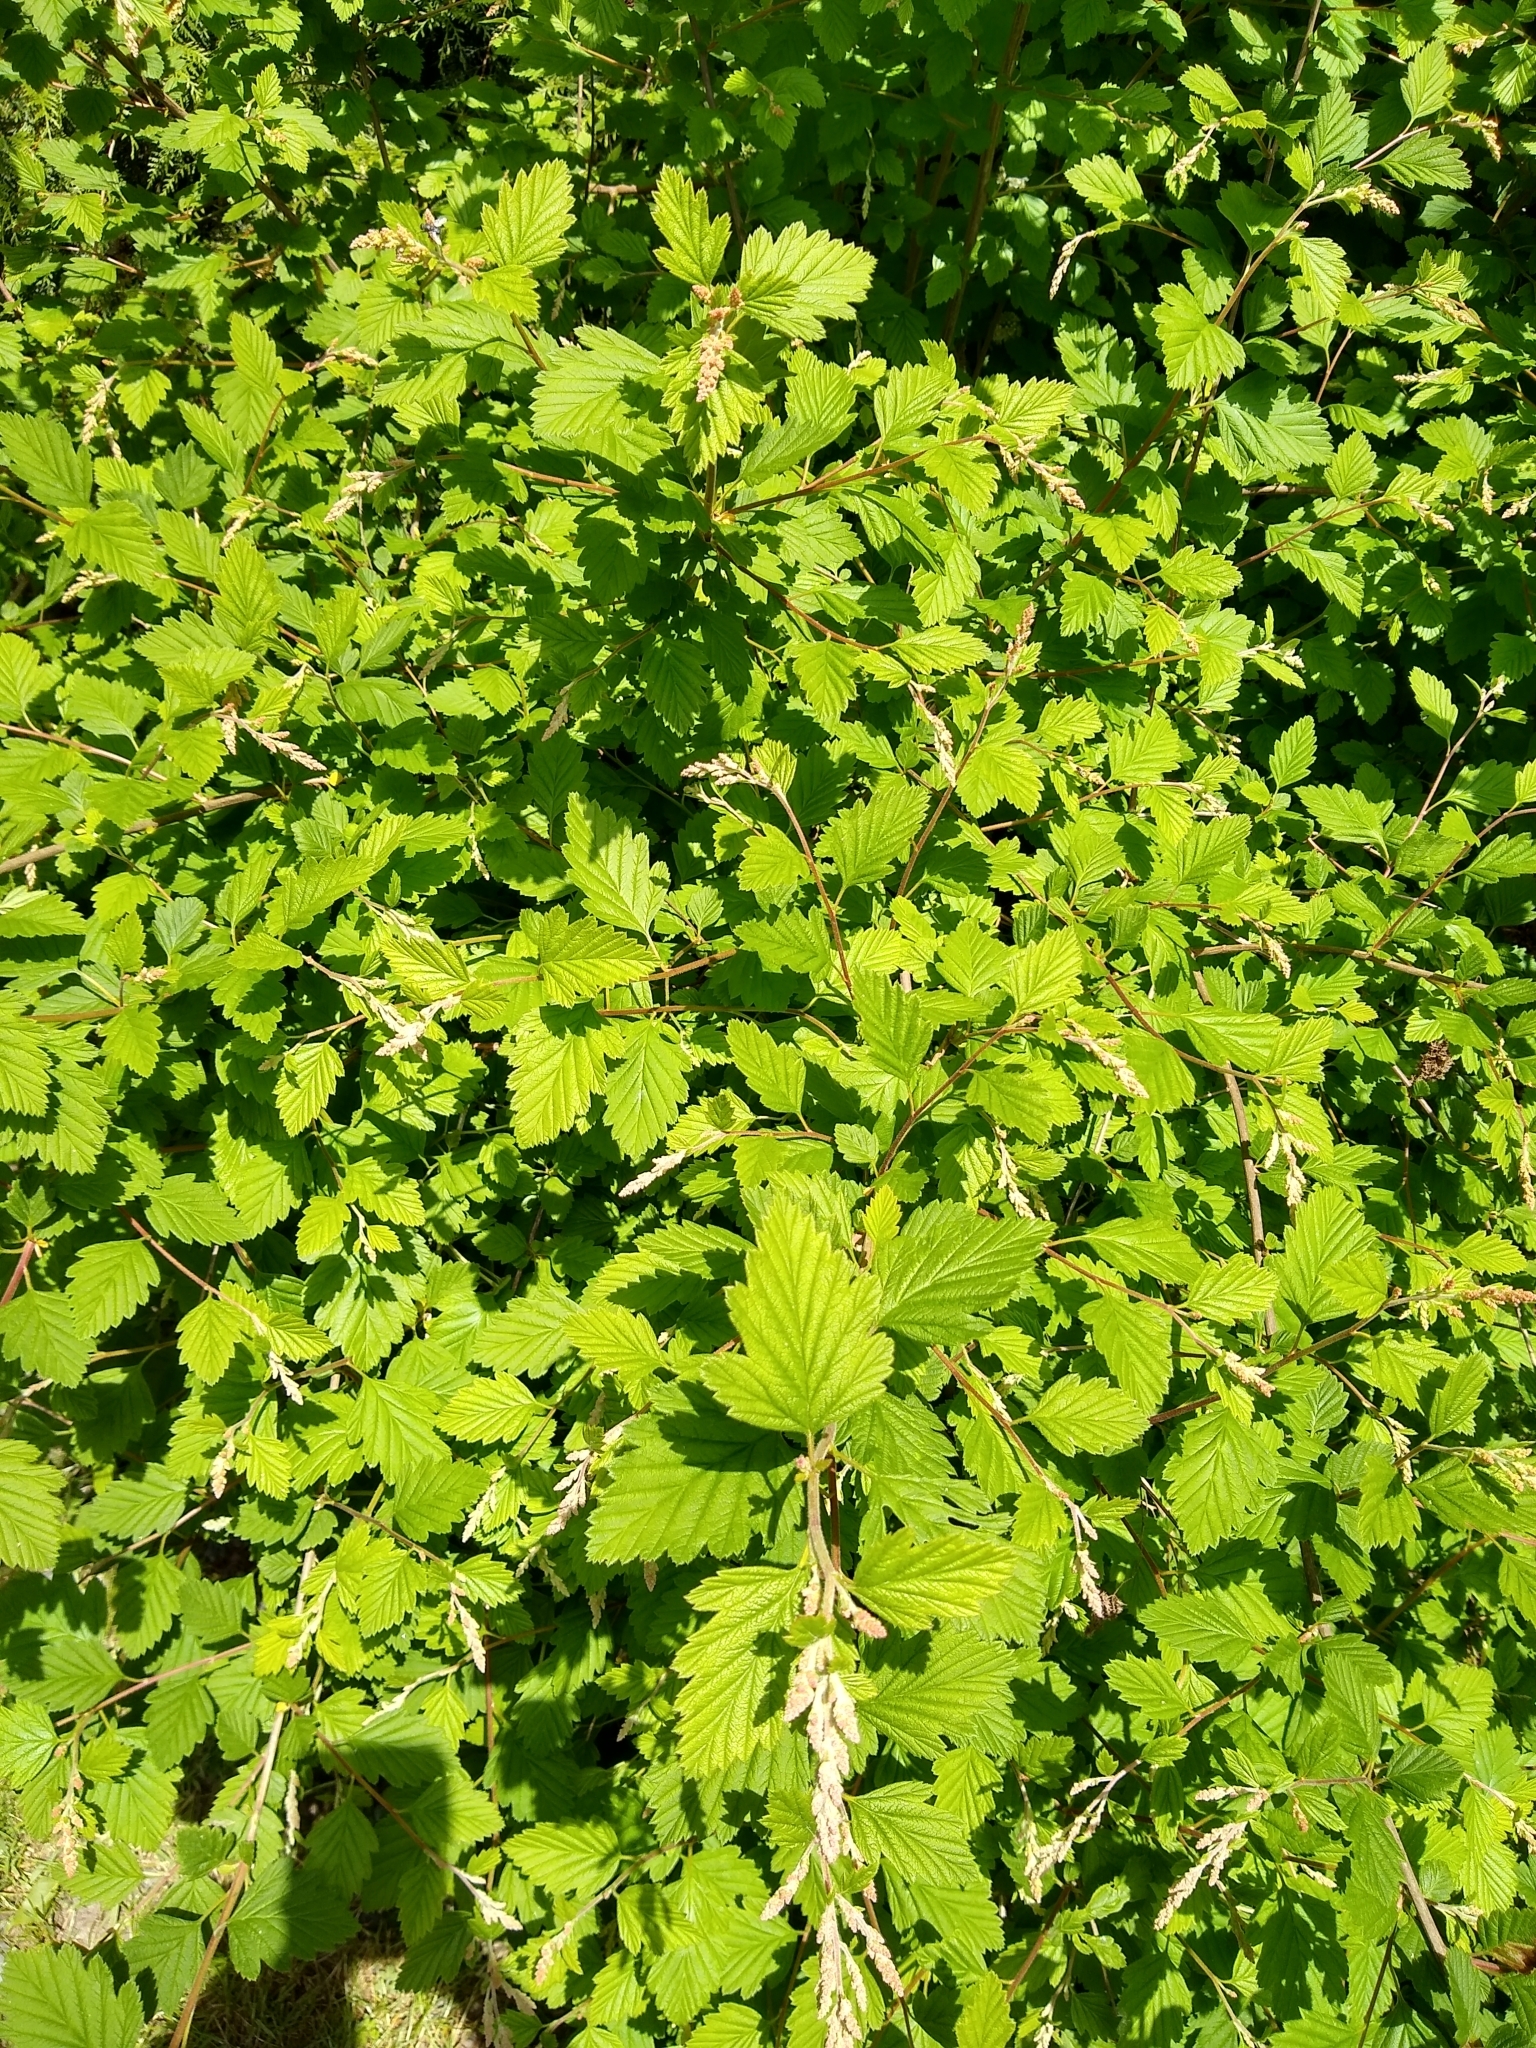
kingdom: Plantae
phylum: Tracheophyta
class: Magnoliopsida
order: Rosales
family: Rosaceae
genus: Holodiscus
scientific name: Holodiscus discolor
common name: Oceanspray
